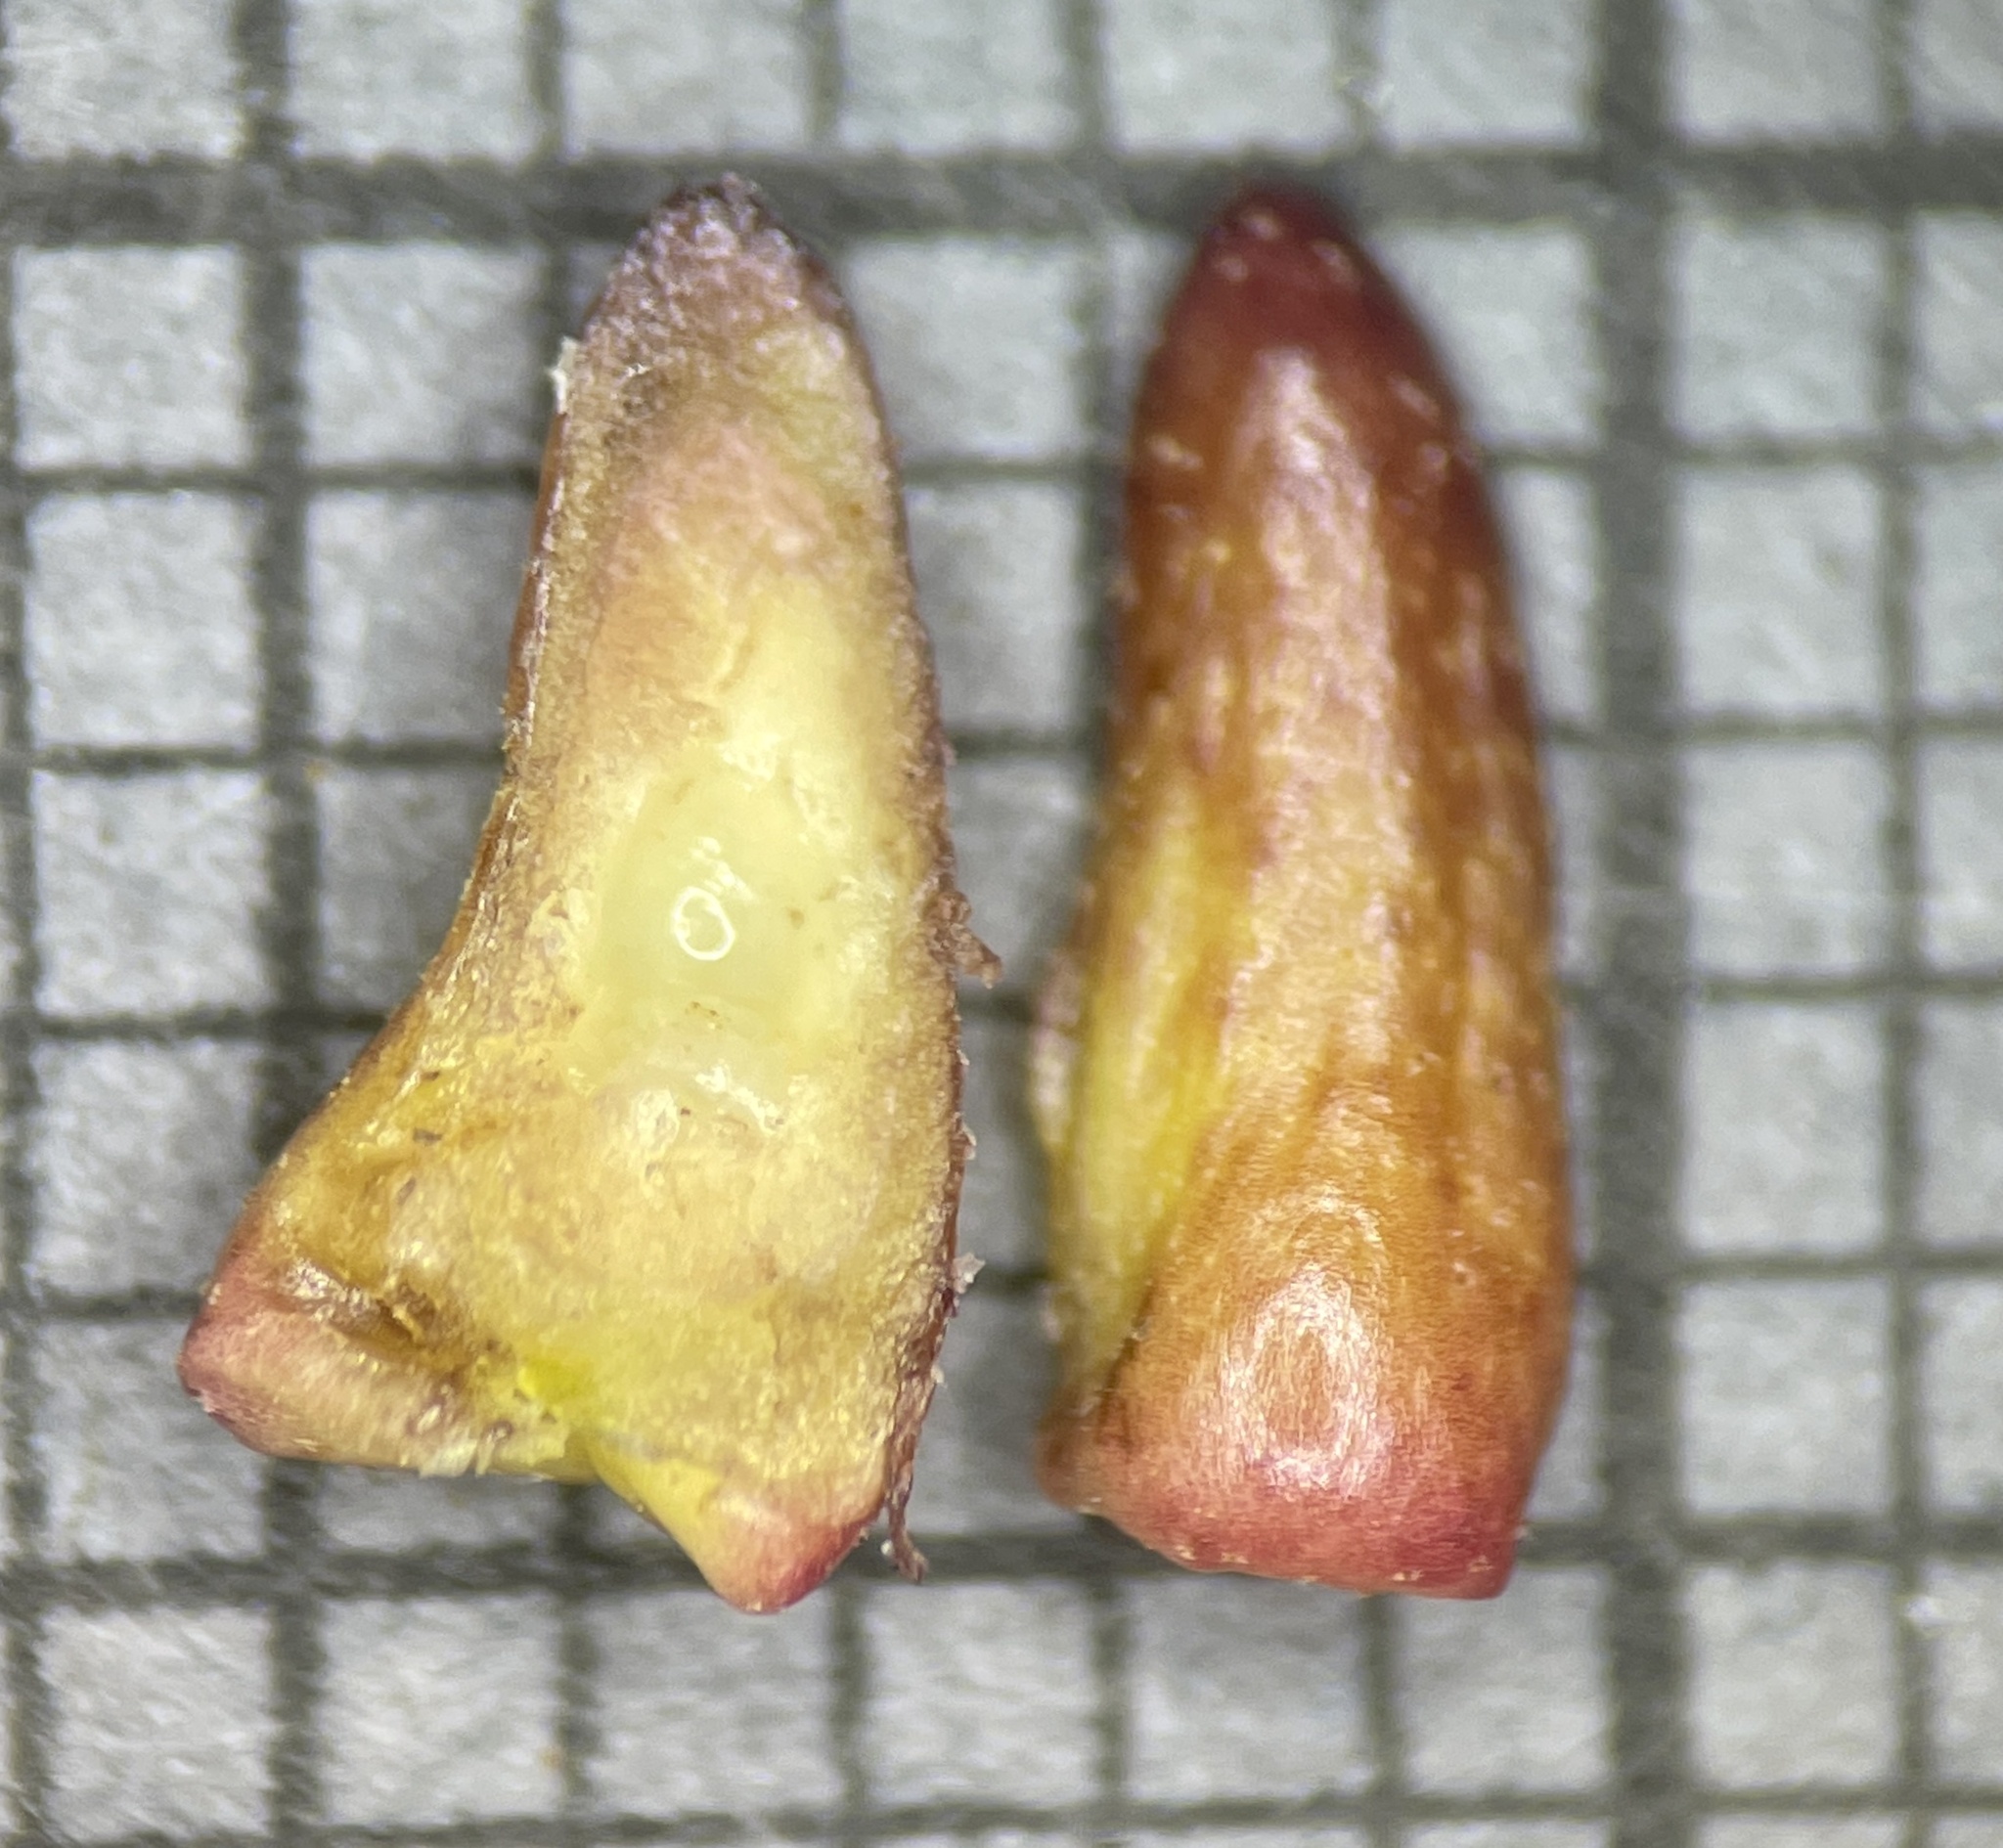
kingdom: Animalia
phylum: Arthropoda
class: Insecta
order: Hymenoptera
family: Cynipidae
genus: Zopheroteras
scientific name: Zopheroteras
